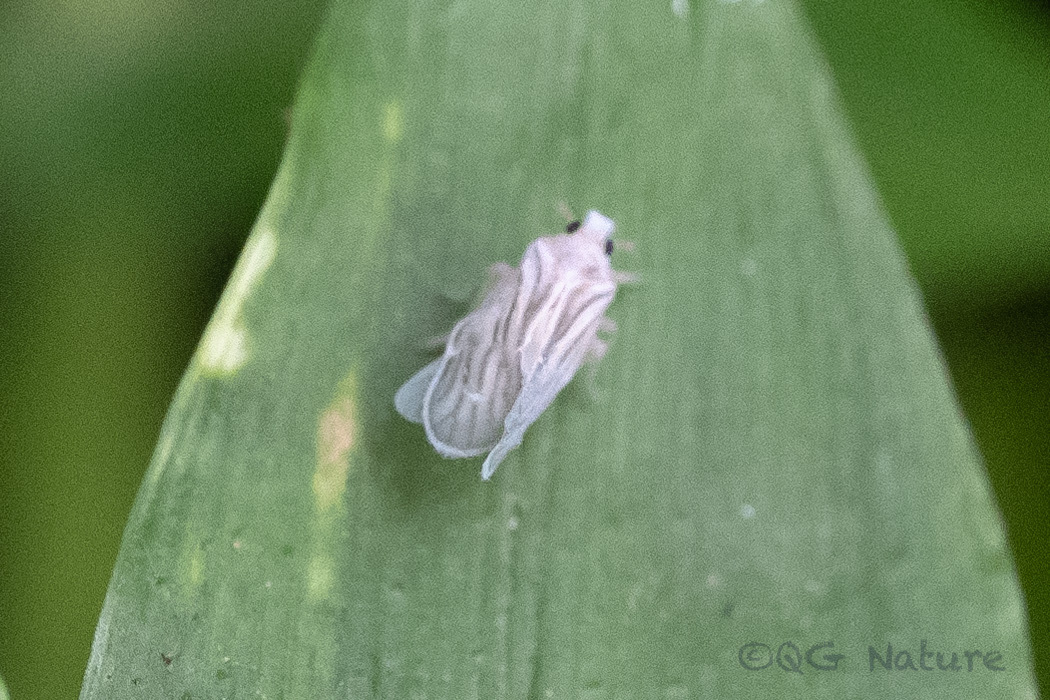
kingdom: Animalia
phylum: Arthropoda
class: Insecta
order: Hemiptera
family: Meenoplidae
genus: Nisia
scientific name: Nisia nervosa
